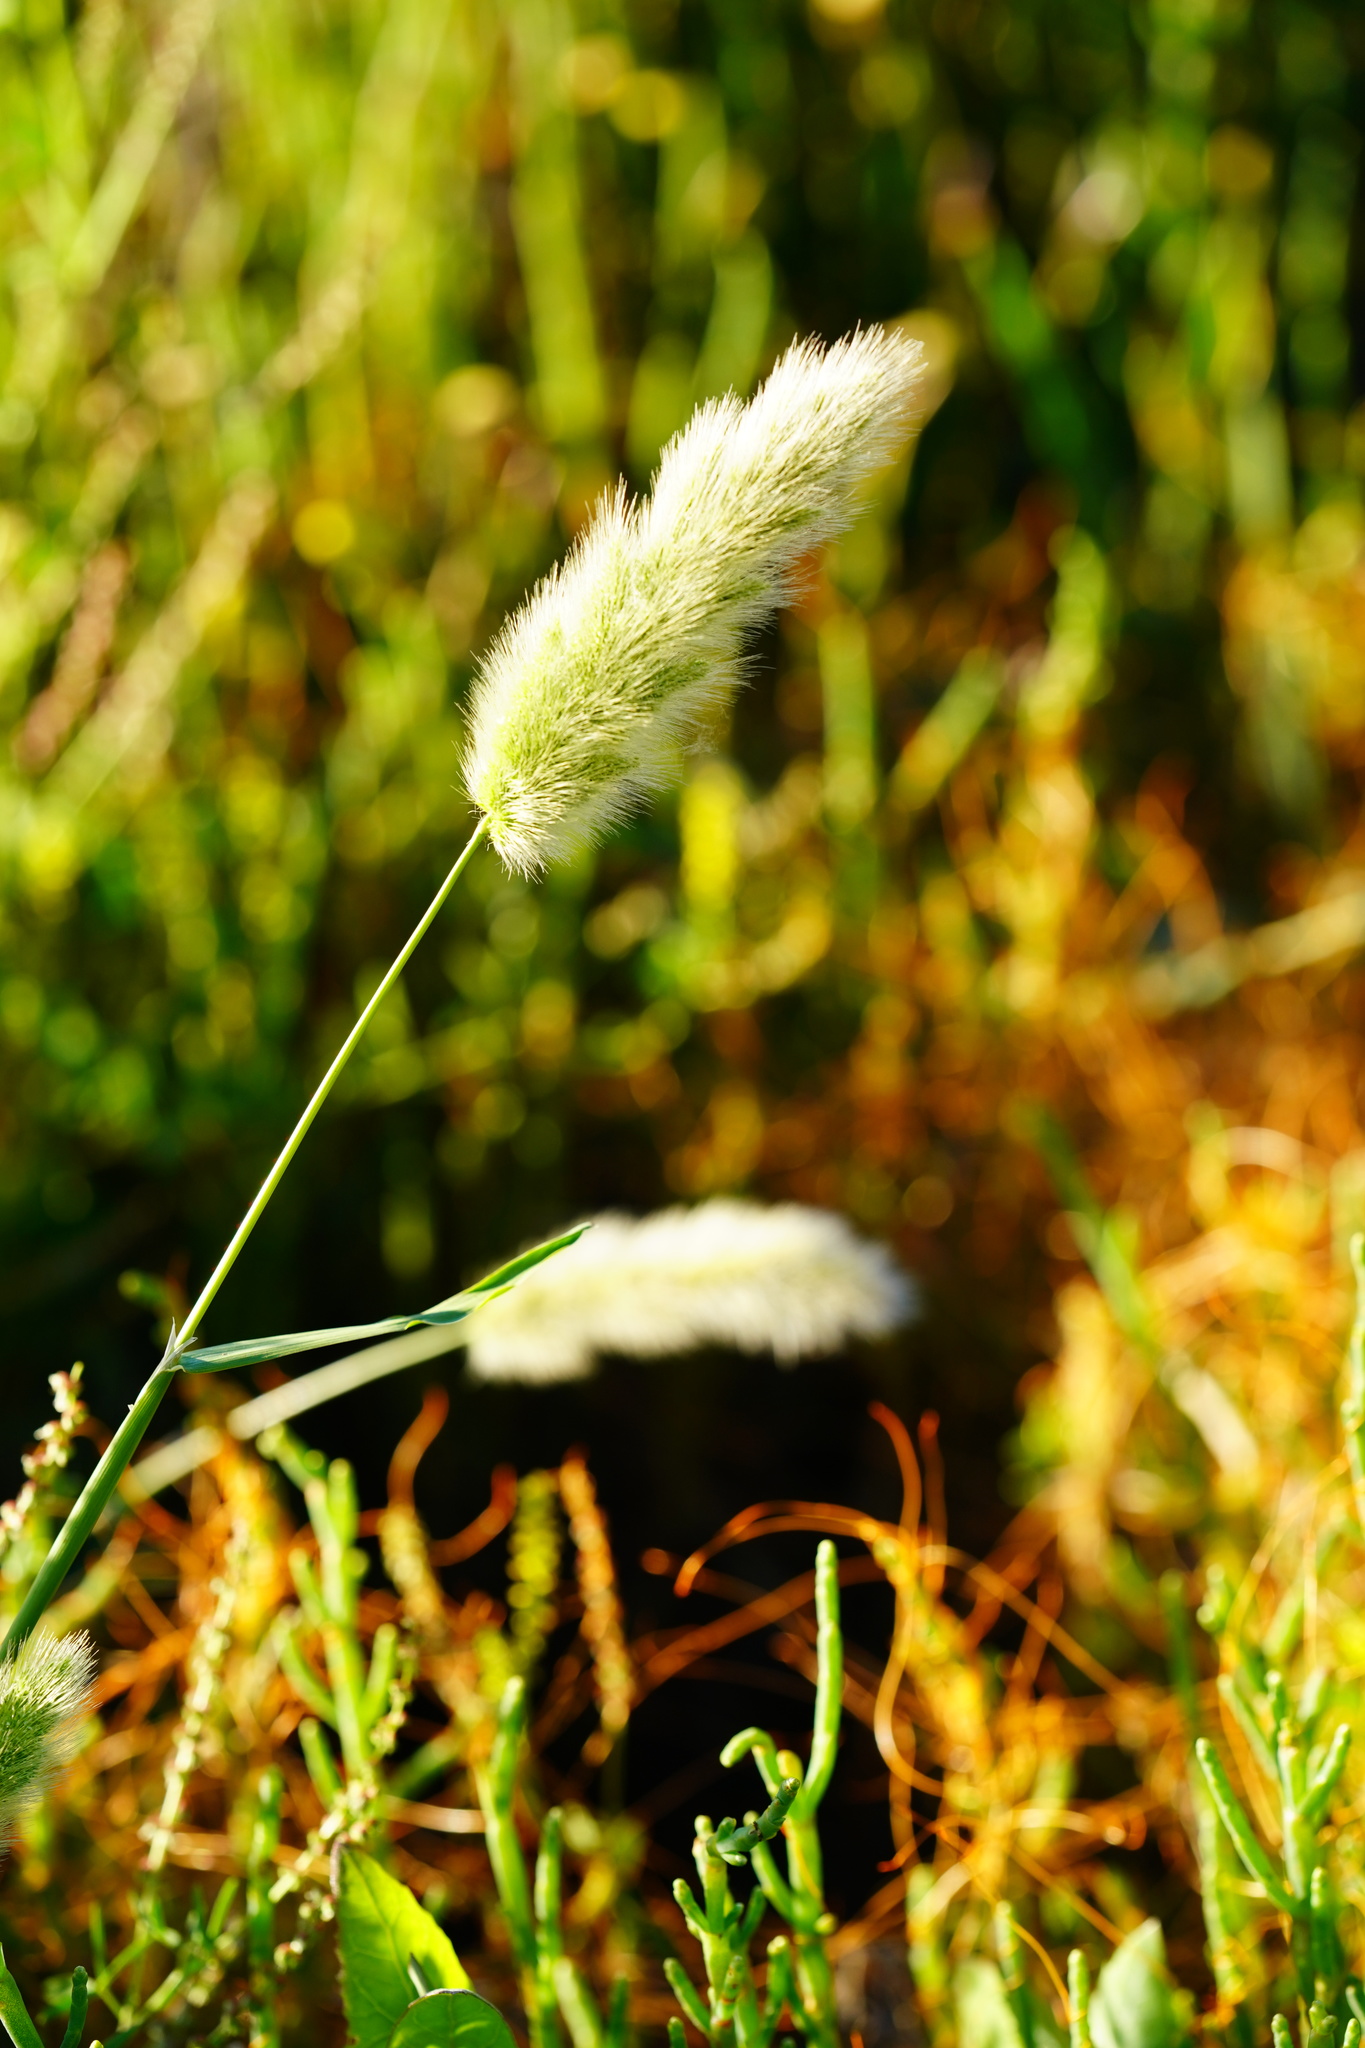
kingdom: Plantae
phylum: Tracheophyta
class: Liliopsida
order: Poales
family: Poaceae
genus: Polypogon
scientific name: Polypogon monspeliensis
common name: Annual rabbitsfoot grass
